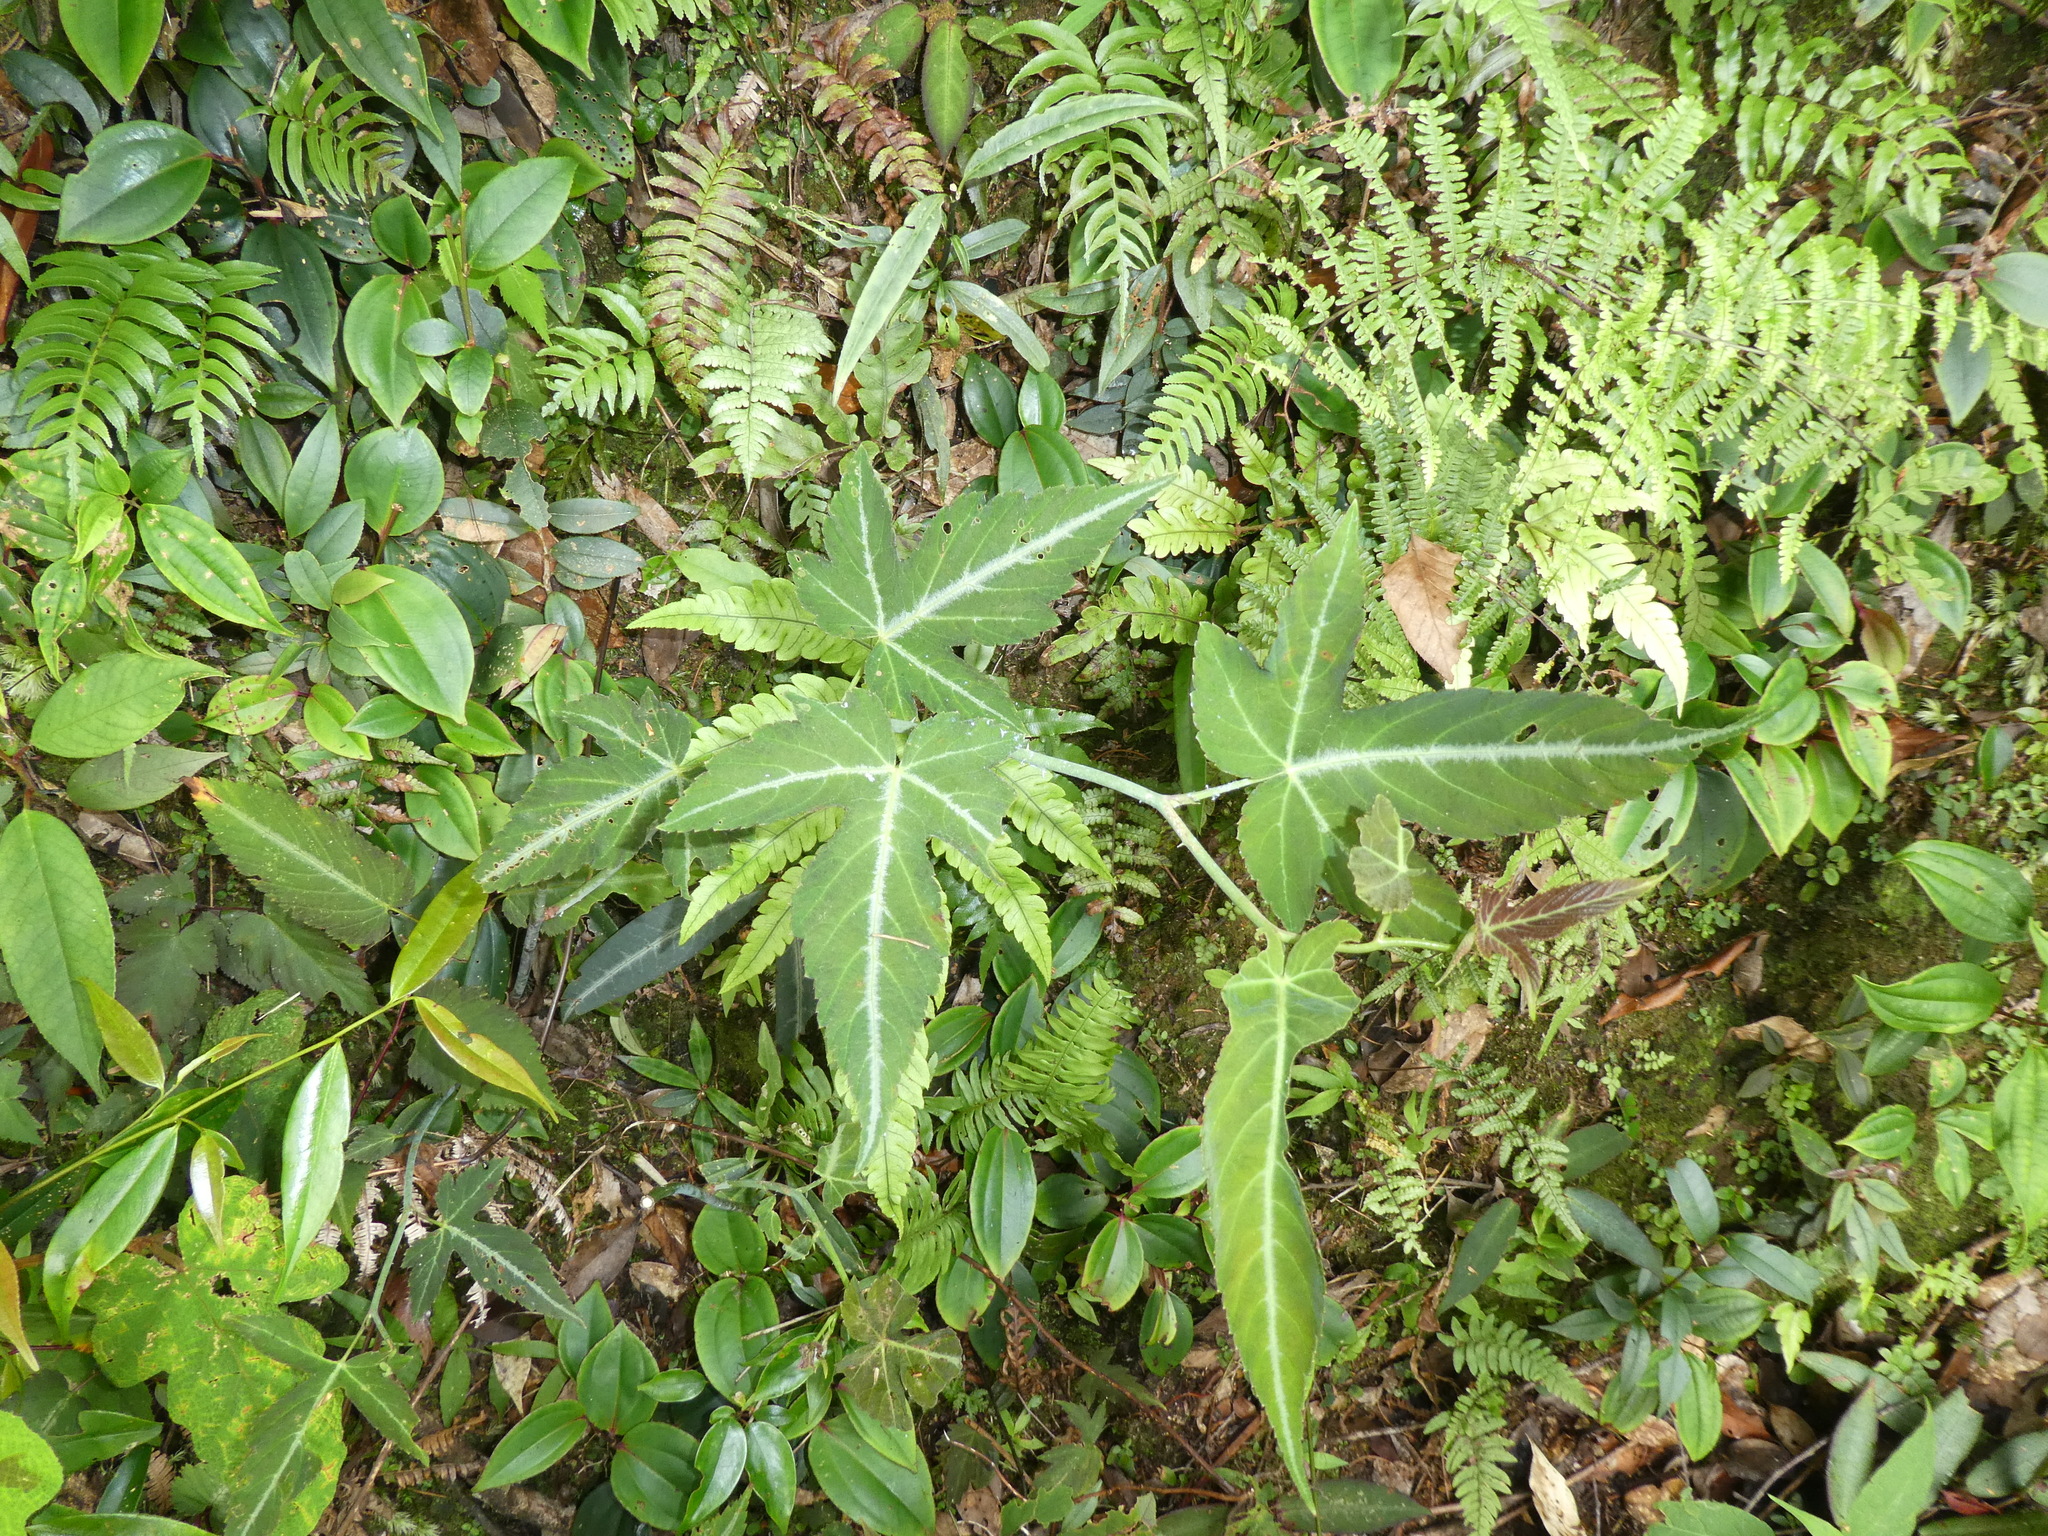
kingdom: Plantae
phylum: Tracheophyta
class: Magnoliopsida
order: Rosales
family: Rosaceae
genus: Rubus
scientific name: Rubus glabricarpus
